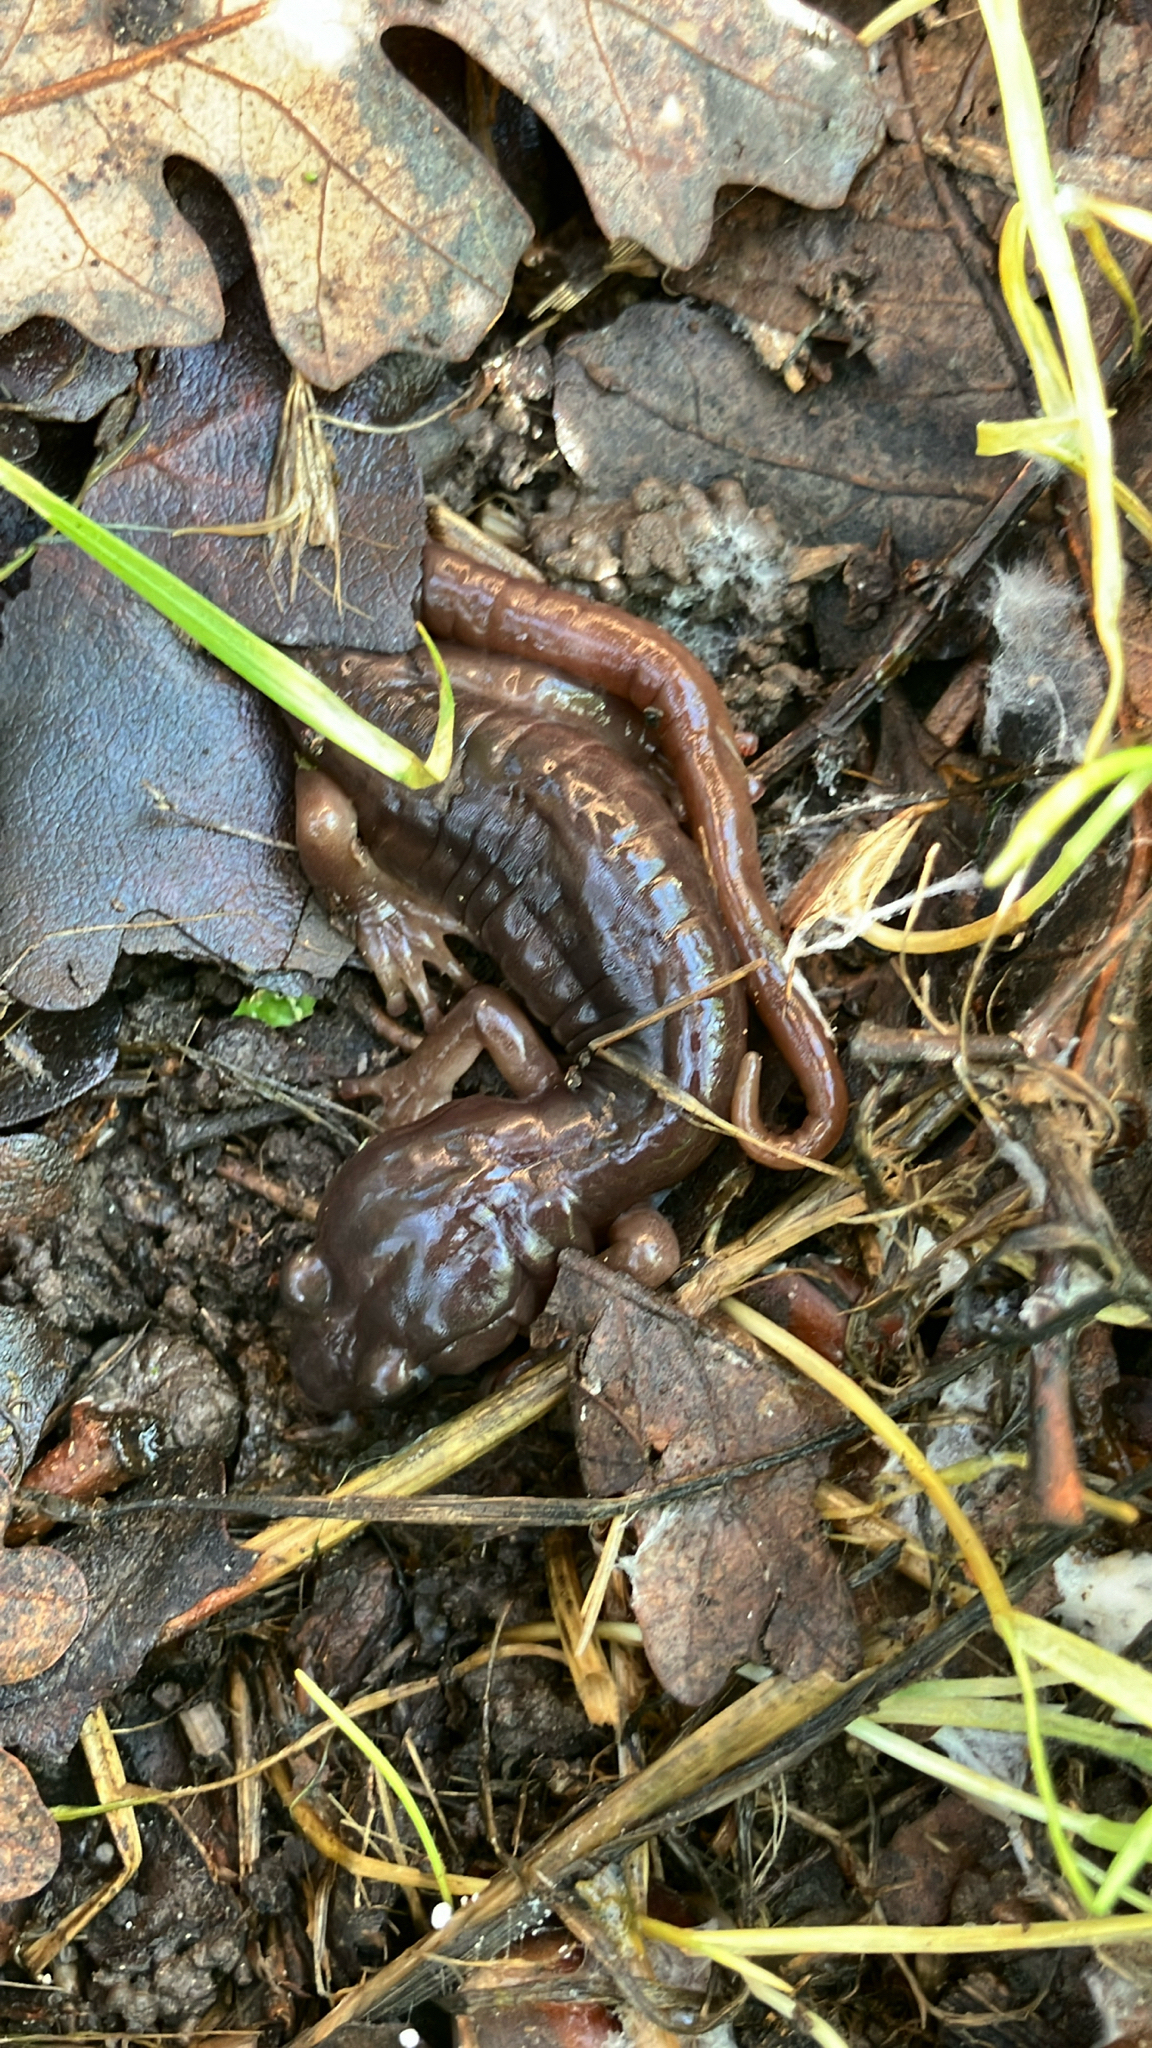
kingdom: Animalia
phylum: Chordata
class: Amphibia
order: Caudata
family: Plethodontidae
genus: Aneides
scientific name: Aneides lugubris
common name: Arboreal salamander
